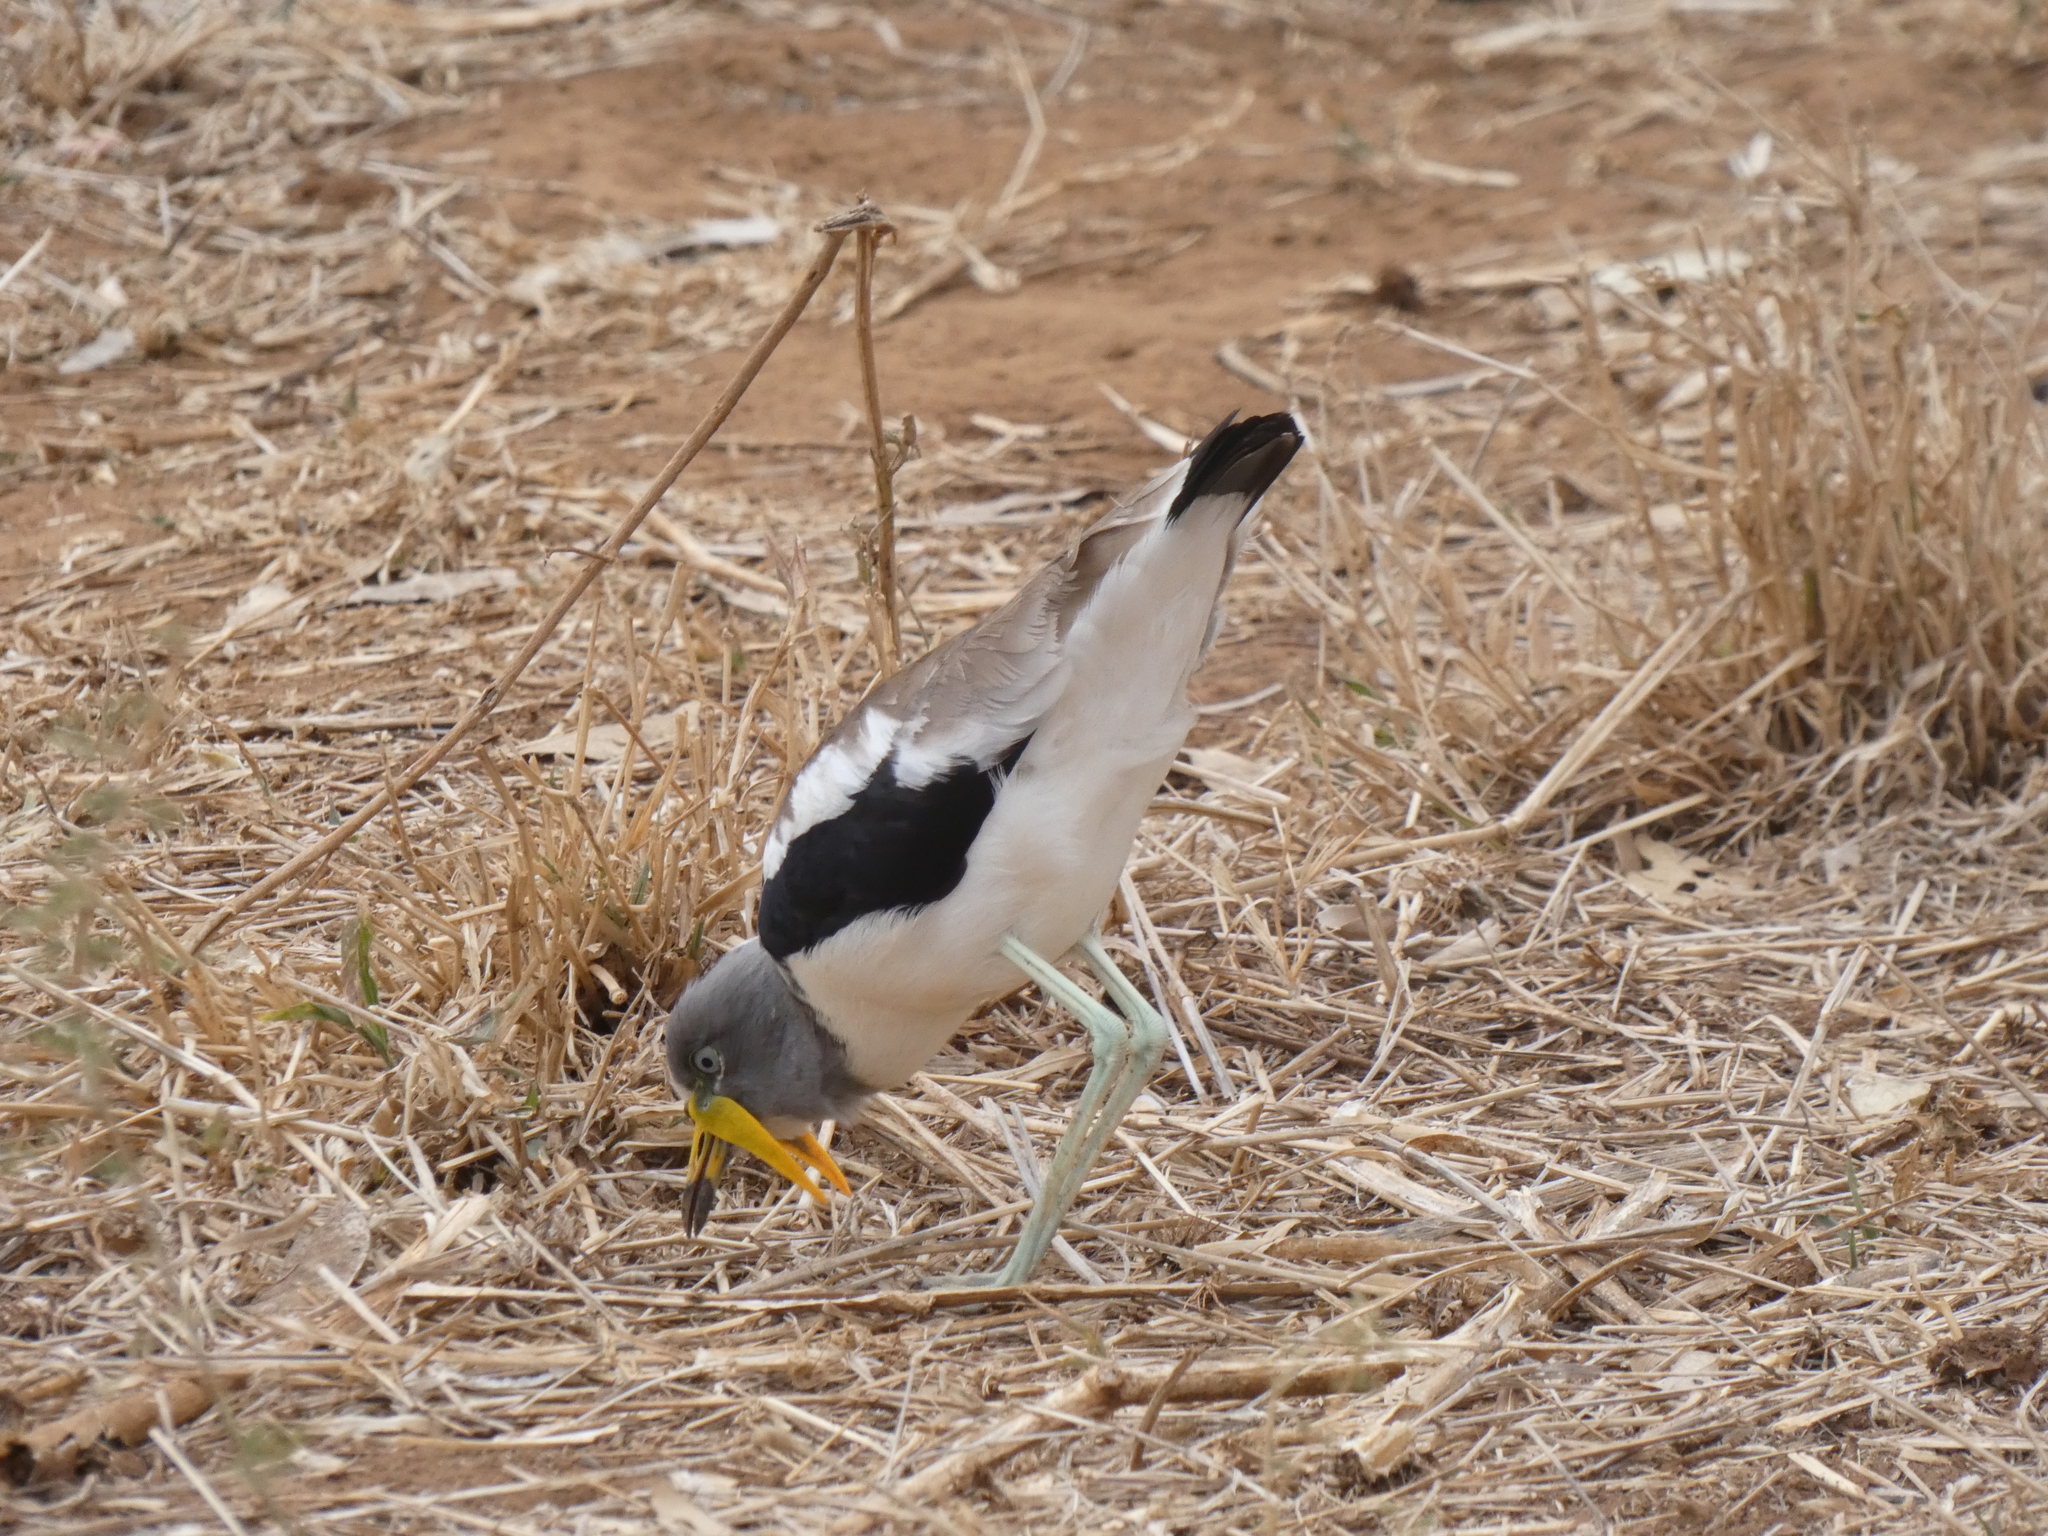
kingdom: Animalia
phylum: Chordata
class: Aves
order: Charadriiformes
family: Charadriidae
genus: Vanellus
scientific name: Vanellus albiceps
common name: White-crowned lapwing
